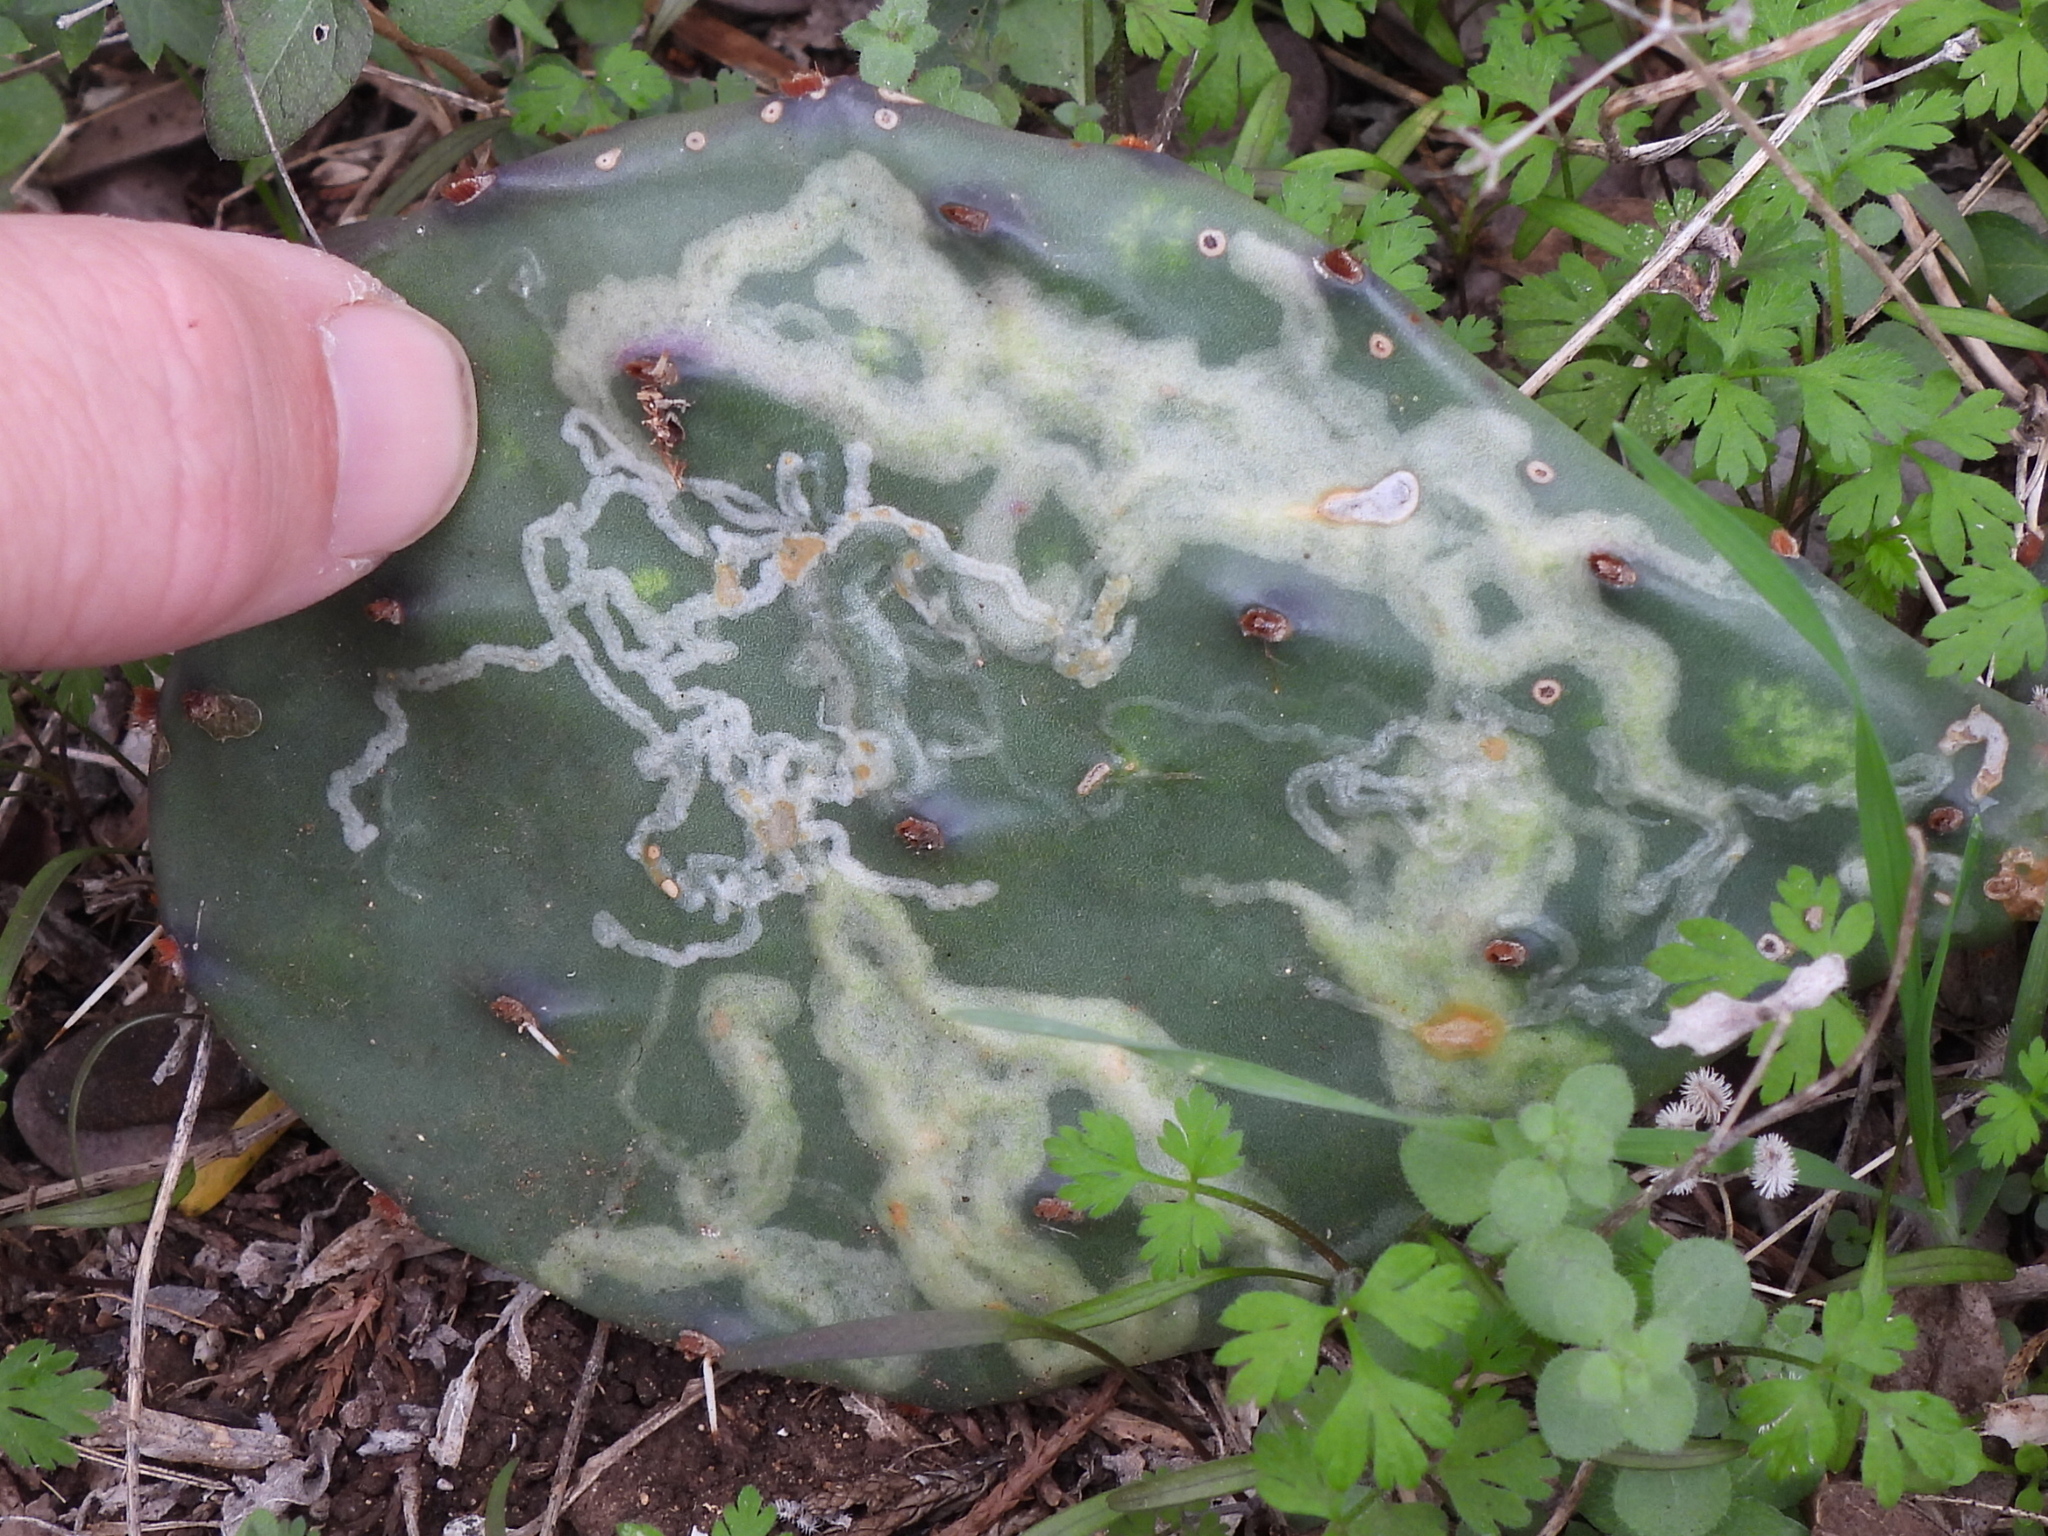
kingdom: Animalia
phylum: Arthropoda
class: Insecta
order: Lepidoptera
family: Gracillariidae
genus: Marmara
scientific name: Marmara opuntiella
